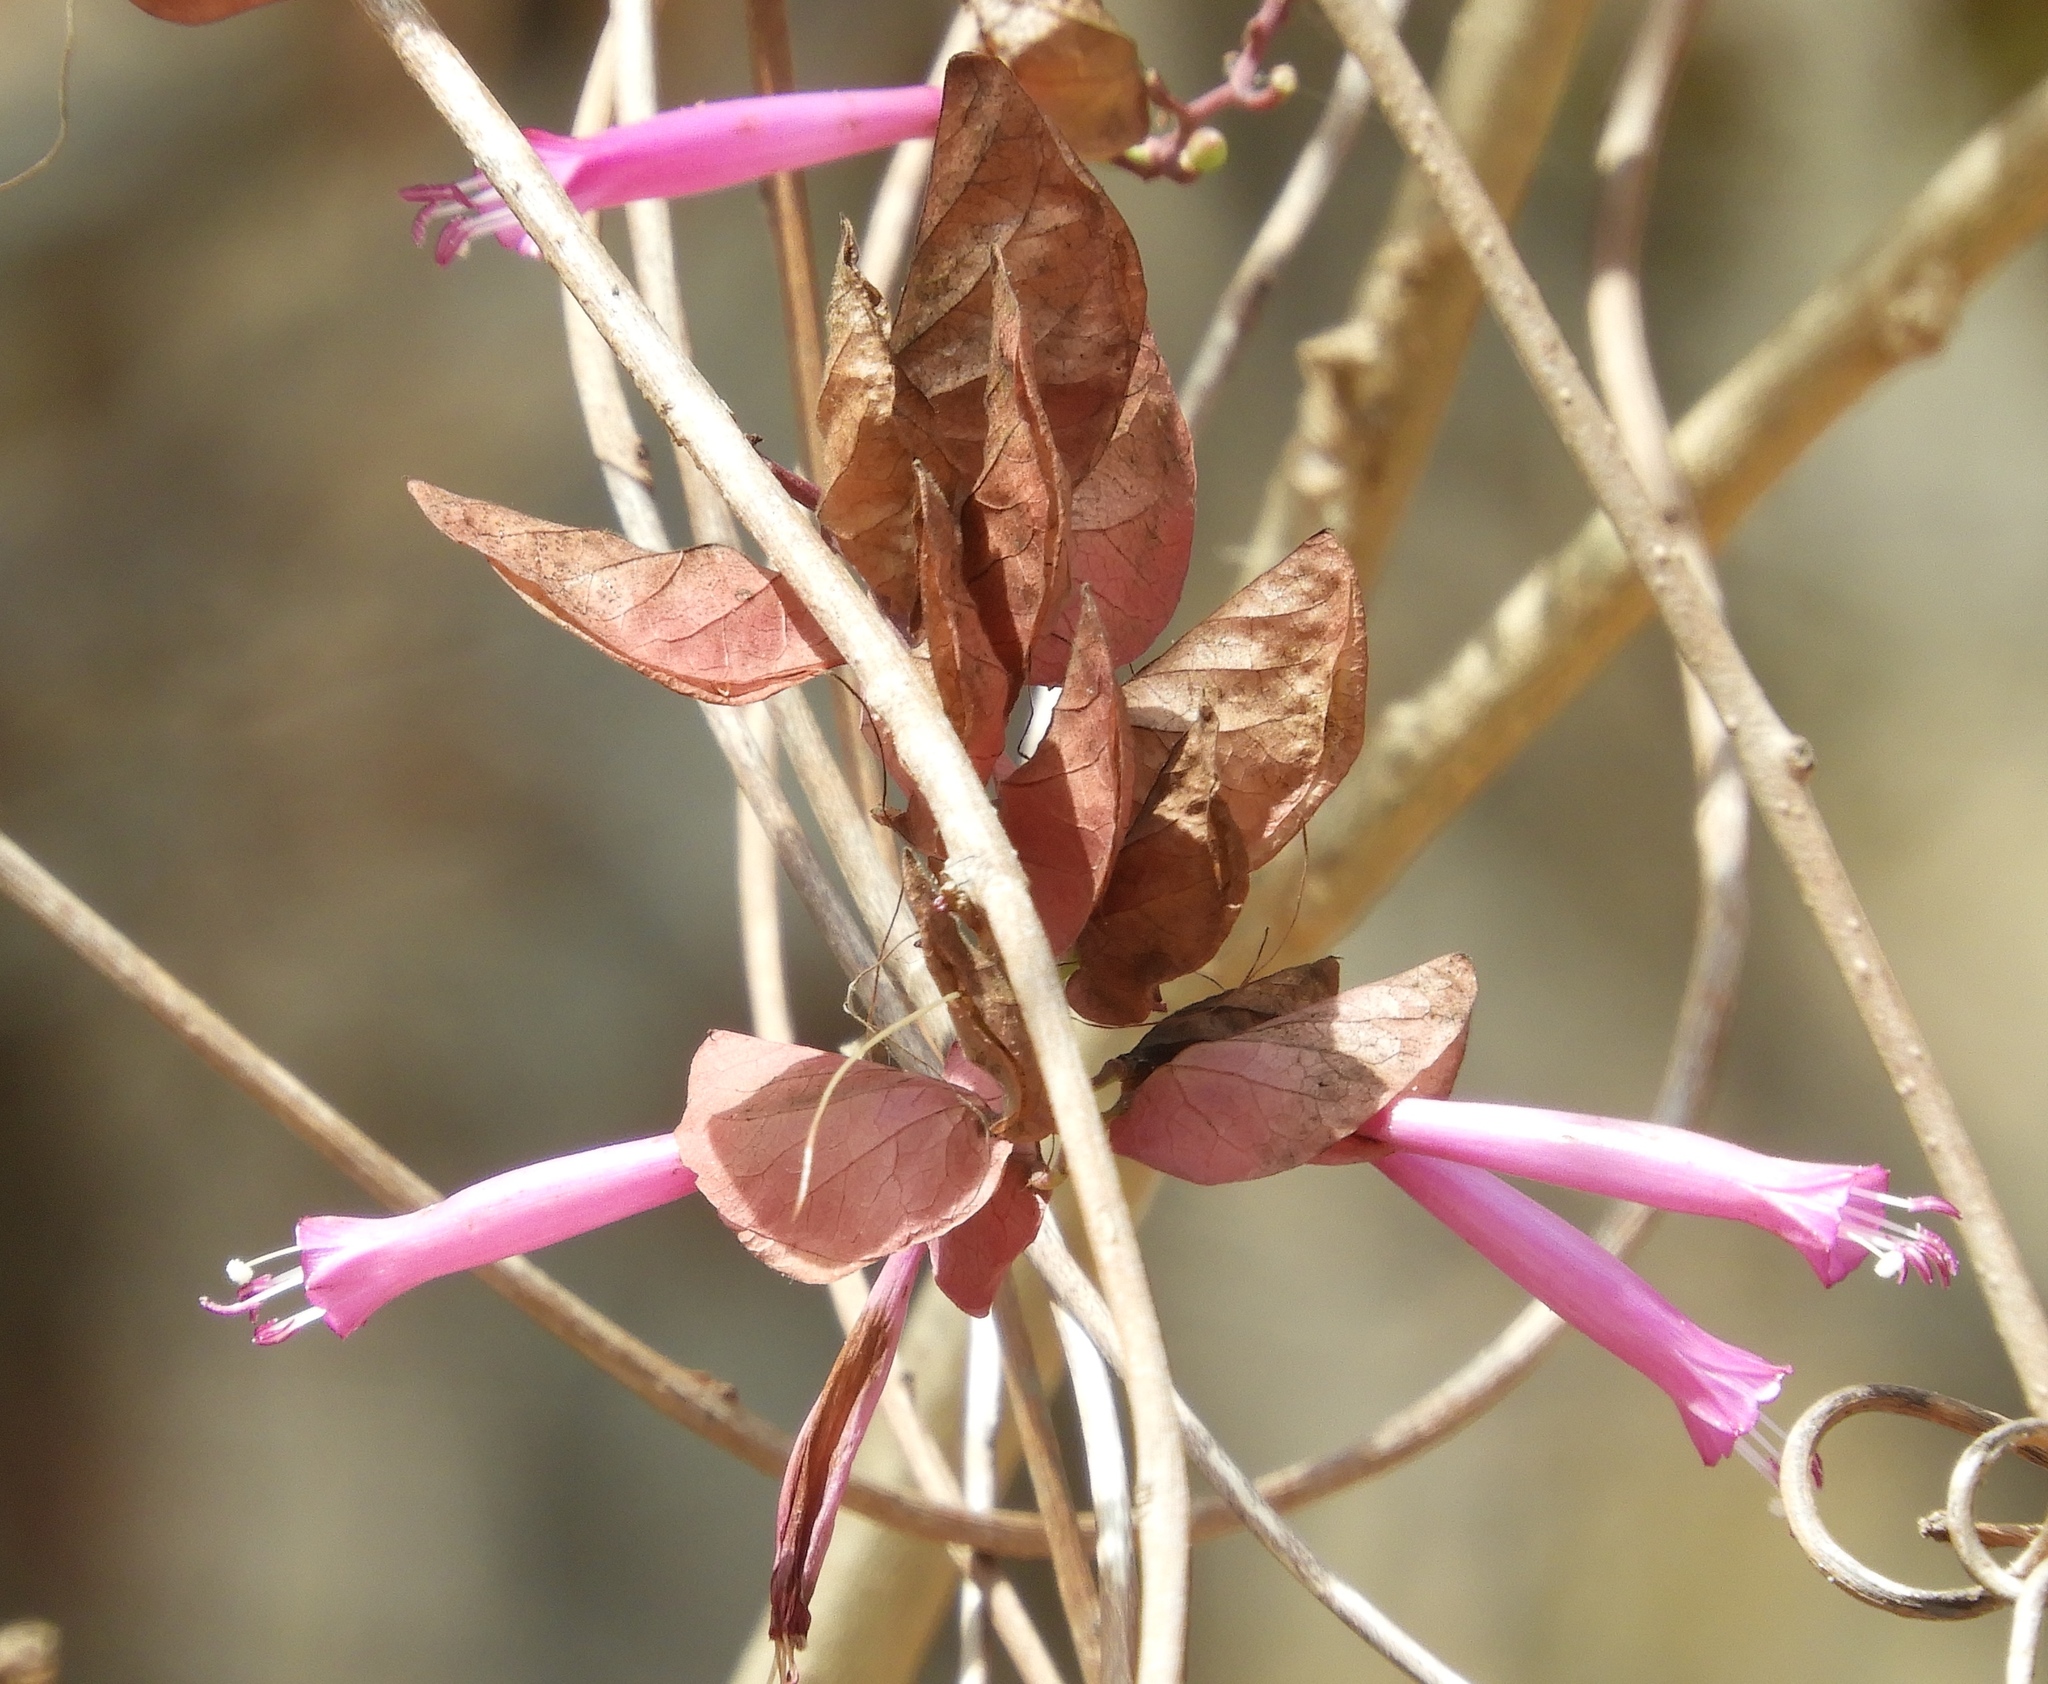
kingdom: Plantae
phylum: Tracheophyta
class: Magnoliopsida
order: Solanales
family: Convolvulaceae
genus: Ipomoea
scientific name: Ipomoea bracteata
